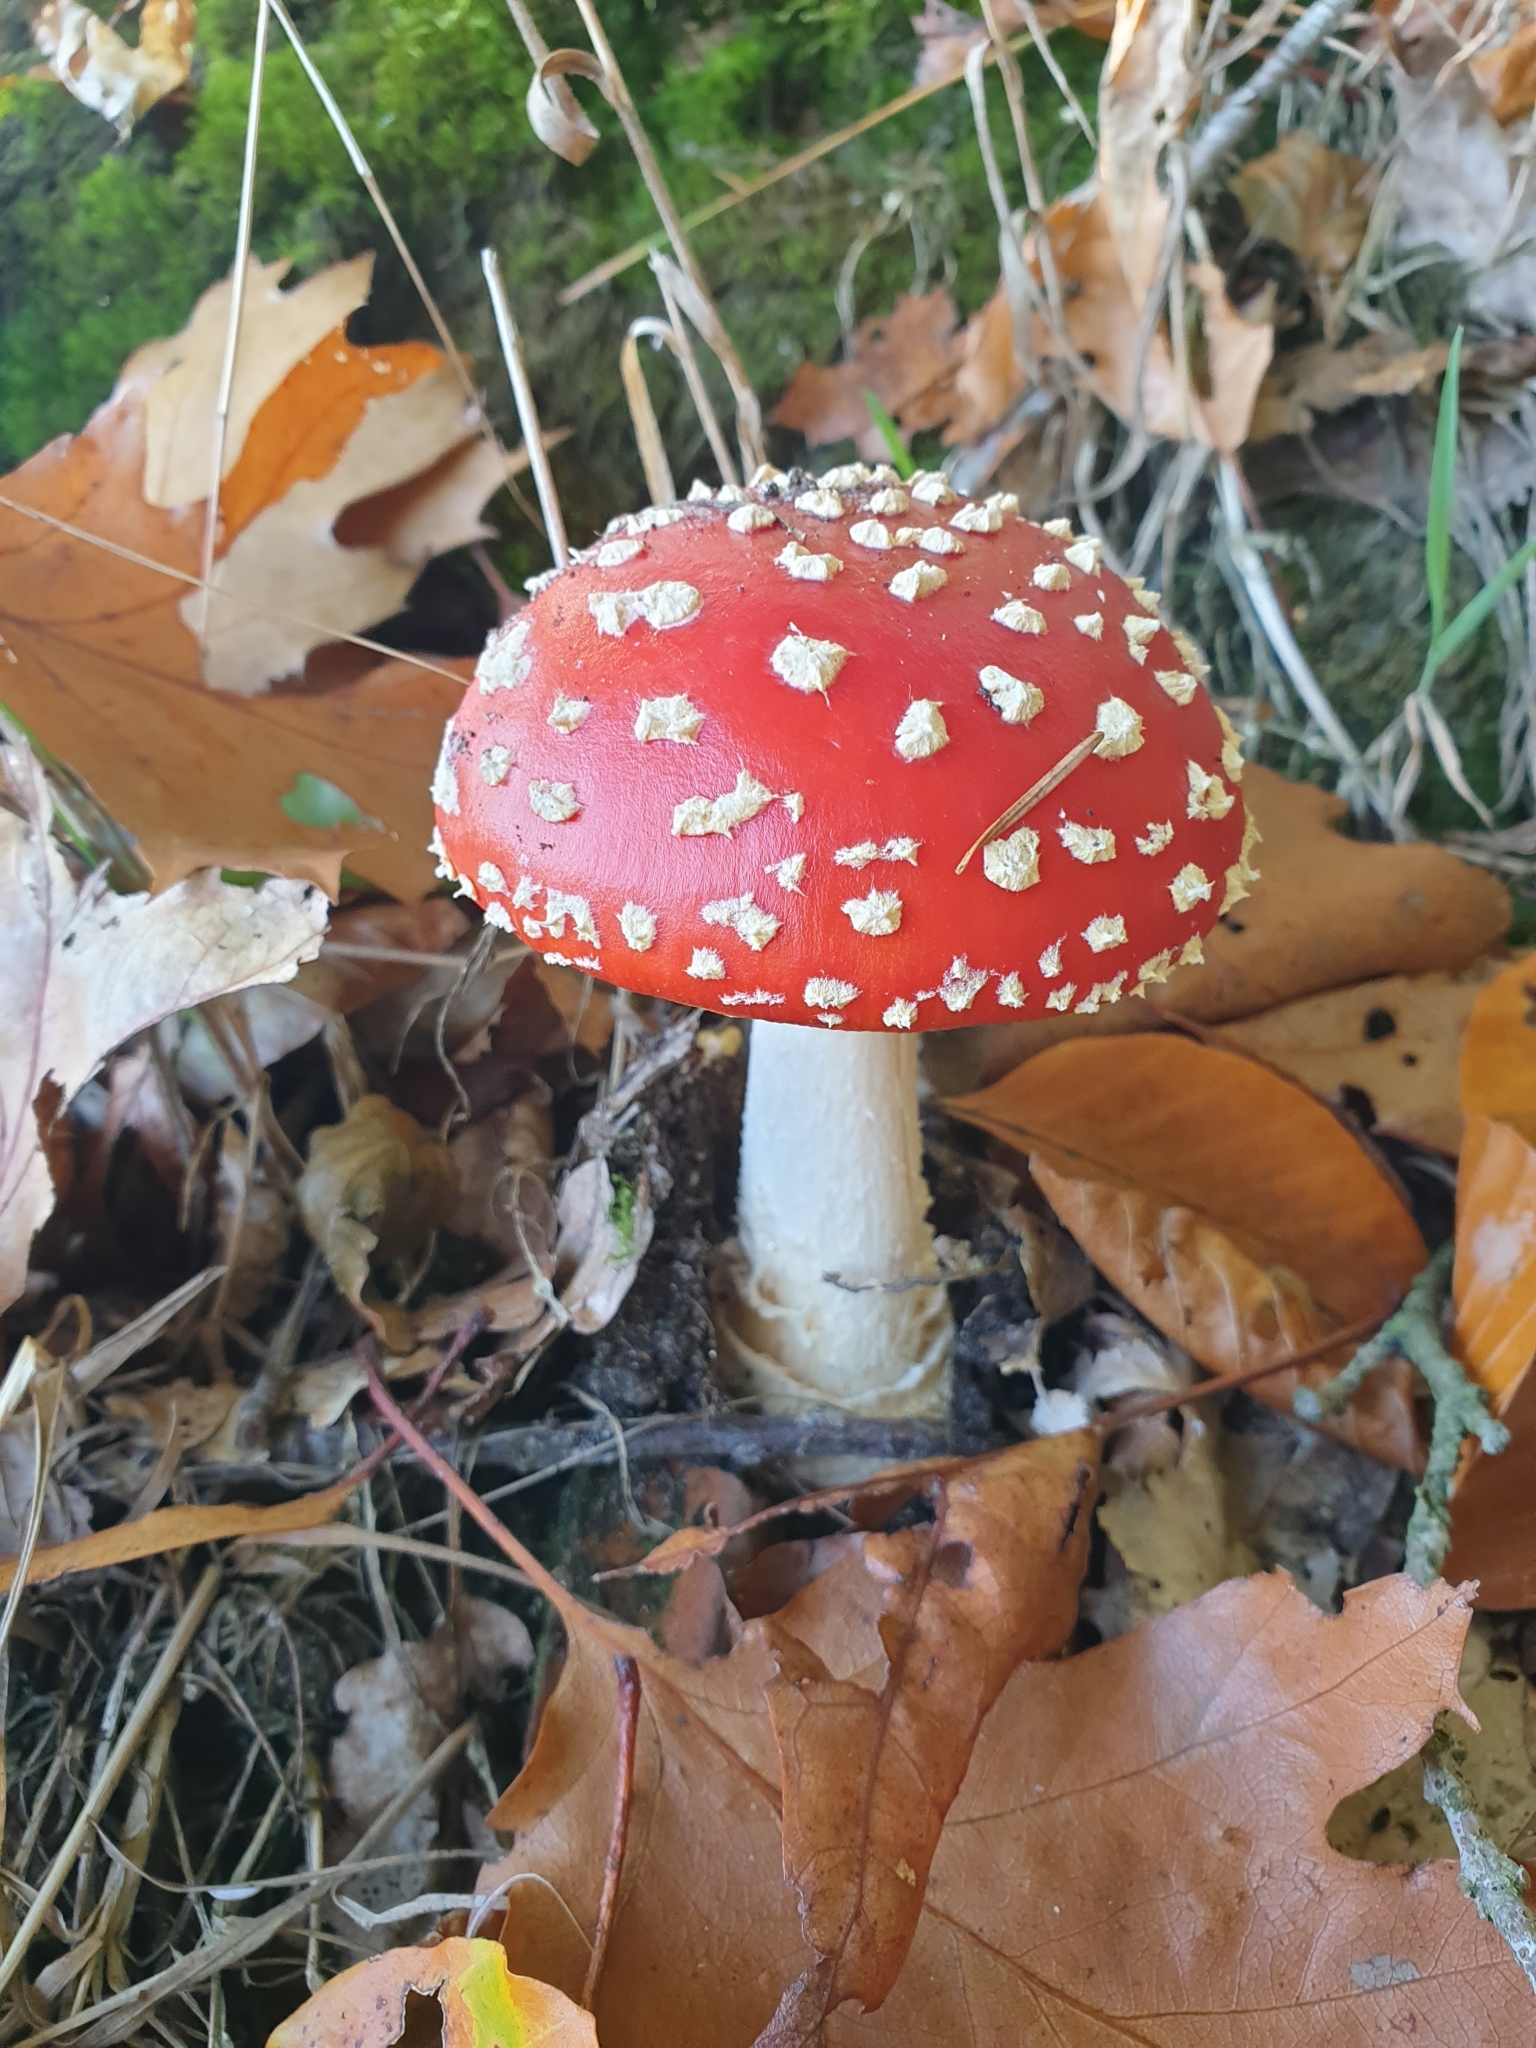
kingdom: Fungi
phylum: Basidiomycota
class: Agaricomycetes
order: Agaricales
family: Amanitaceae
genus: Amanita
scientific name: Amanita muscaria
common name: Fly agaric
